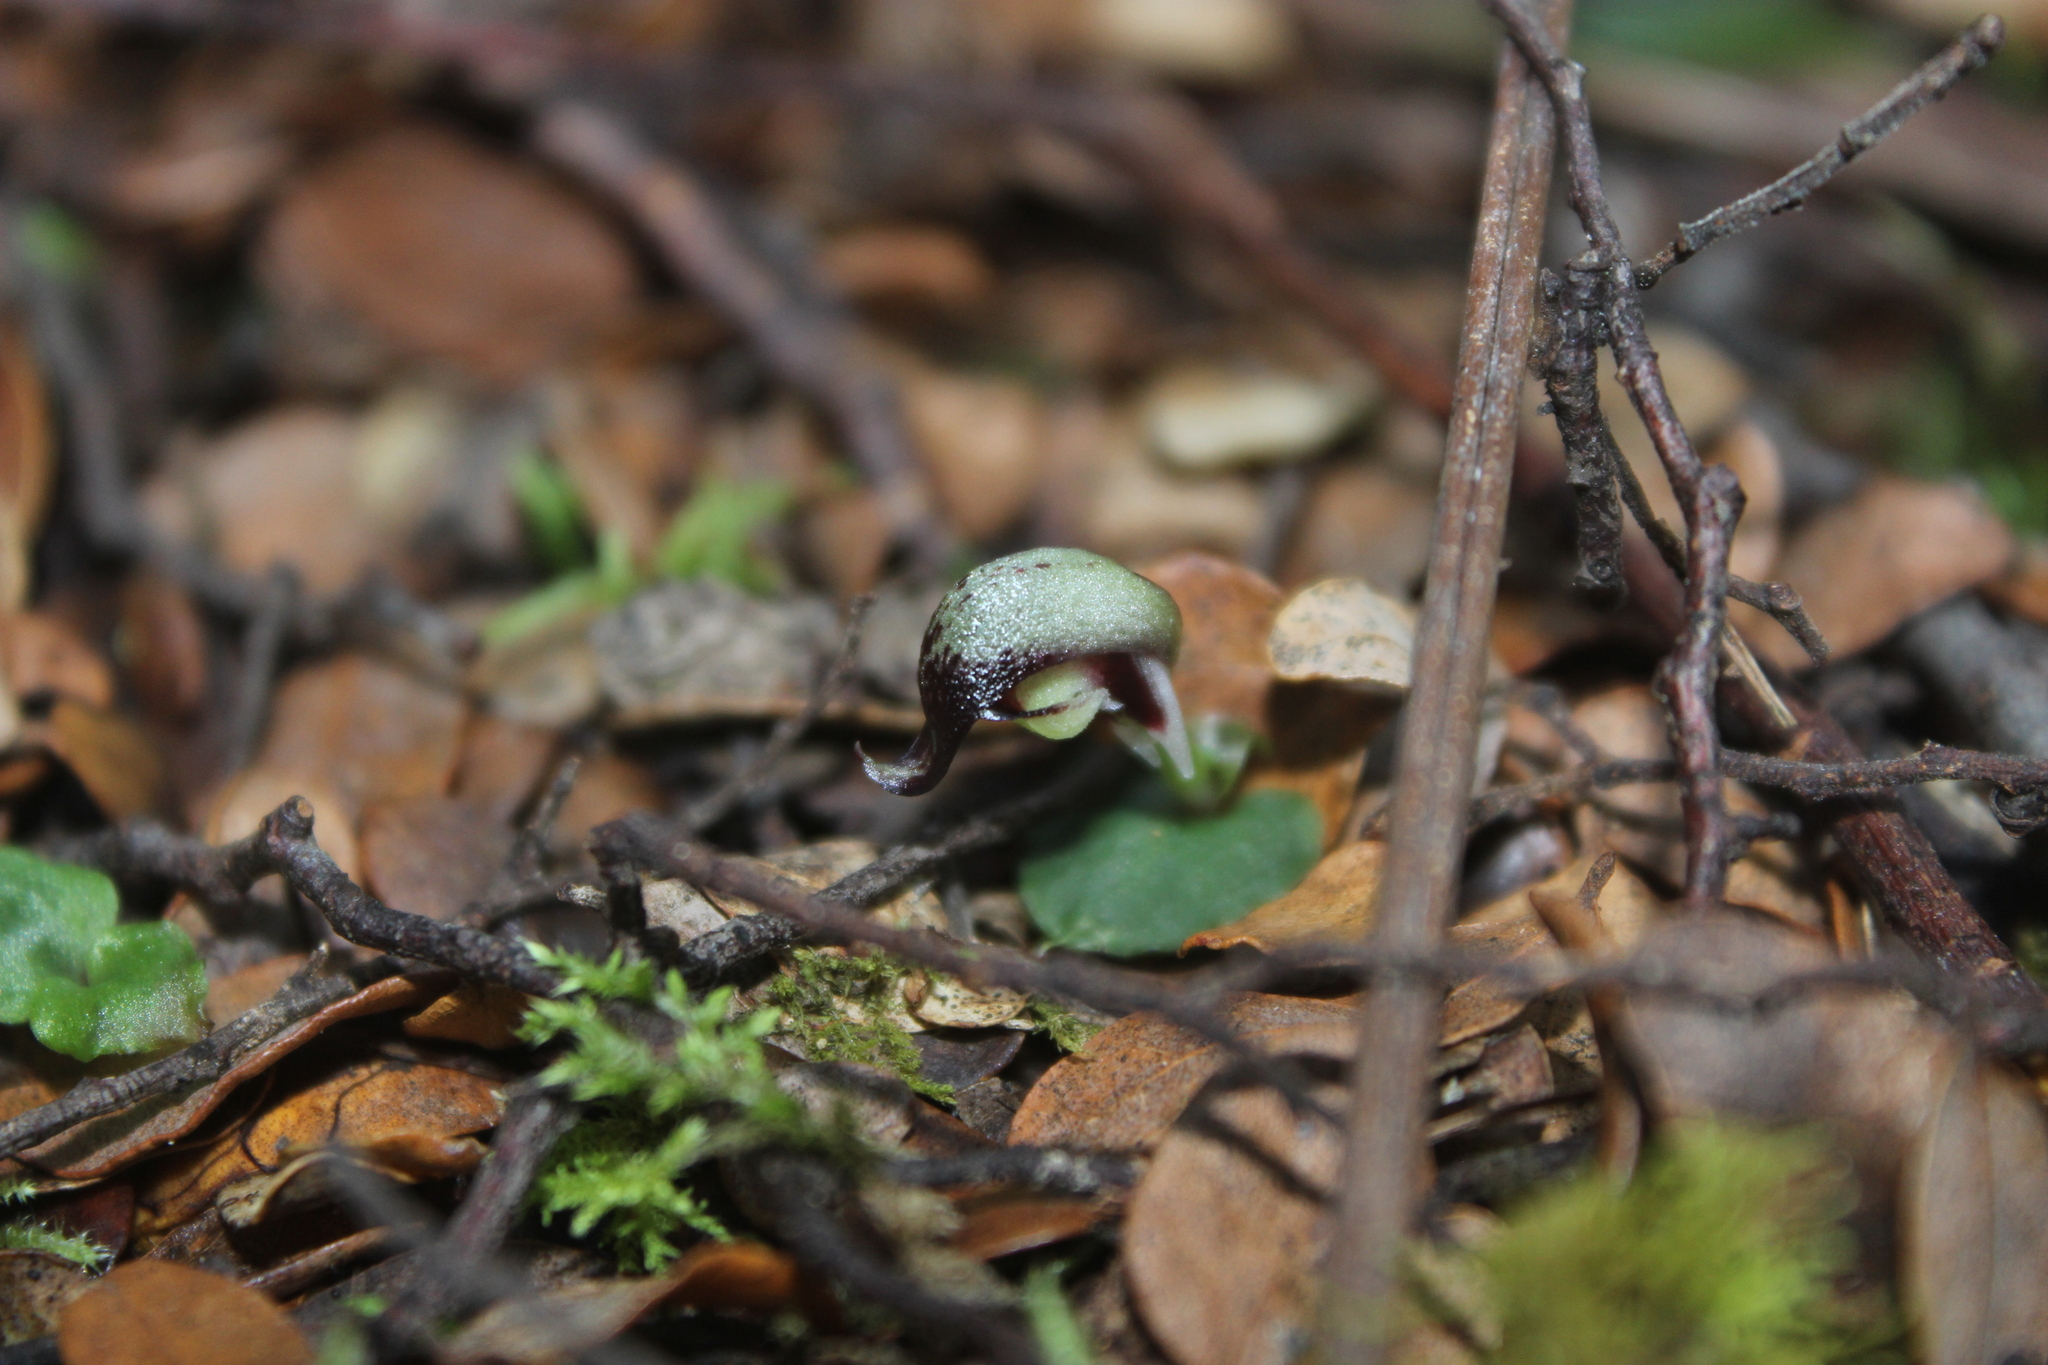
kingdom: Plantae
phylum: Tracheophyta
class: Liliopsida
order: Asparagales
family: Orchidaceae
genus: Corybas
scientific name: Corybas cheesemanii
